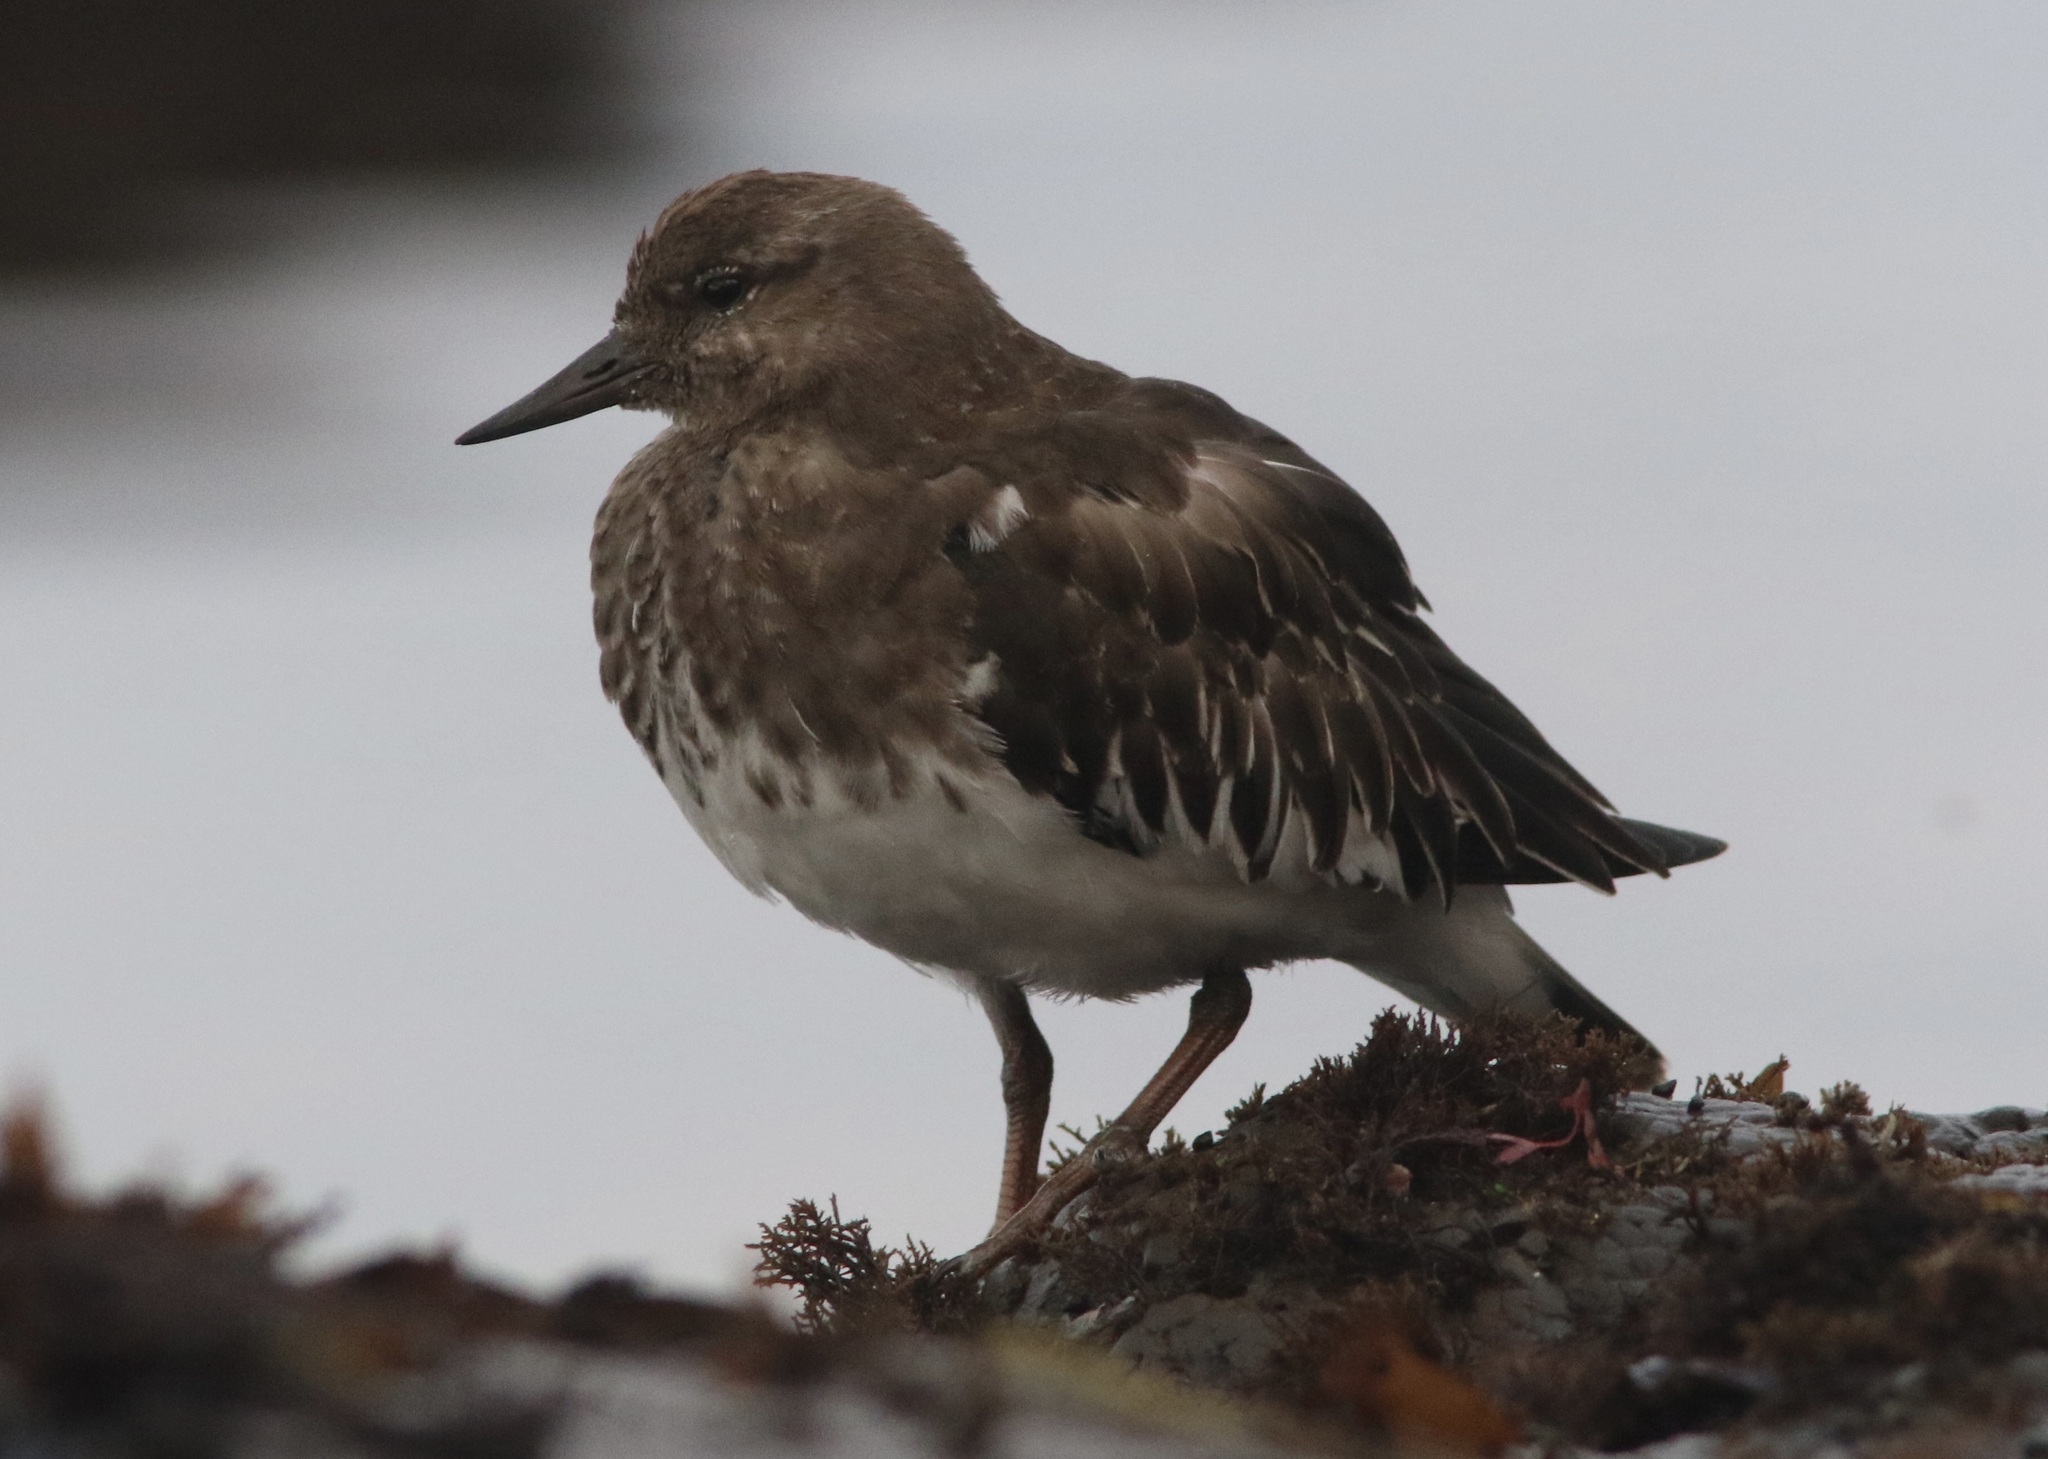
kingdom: Animalia
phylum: Chordata
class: Aves
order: Charadriiformes
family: Scolopacidae
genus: Arenaria
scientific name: Arenaria melanocephala
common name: Black turnstone
